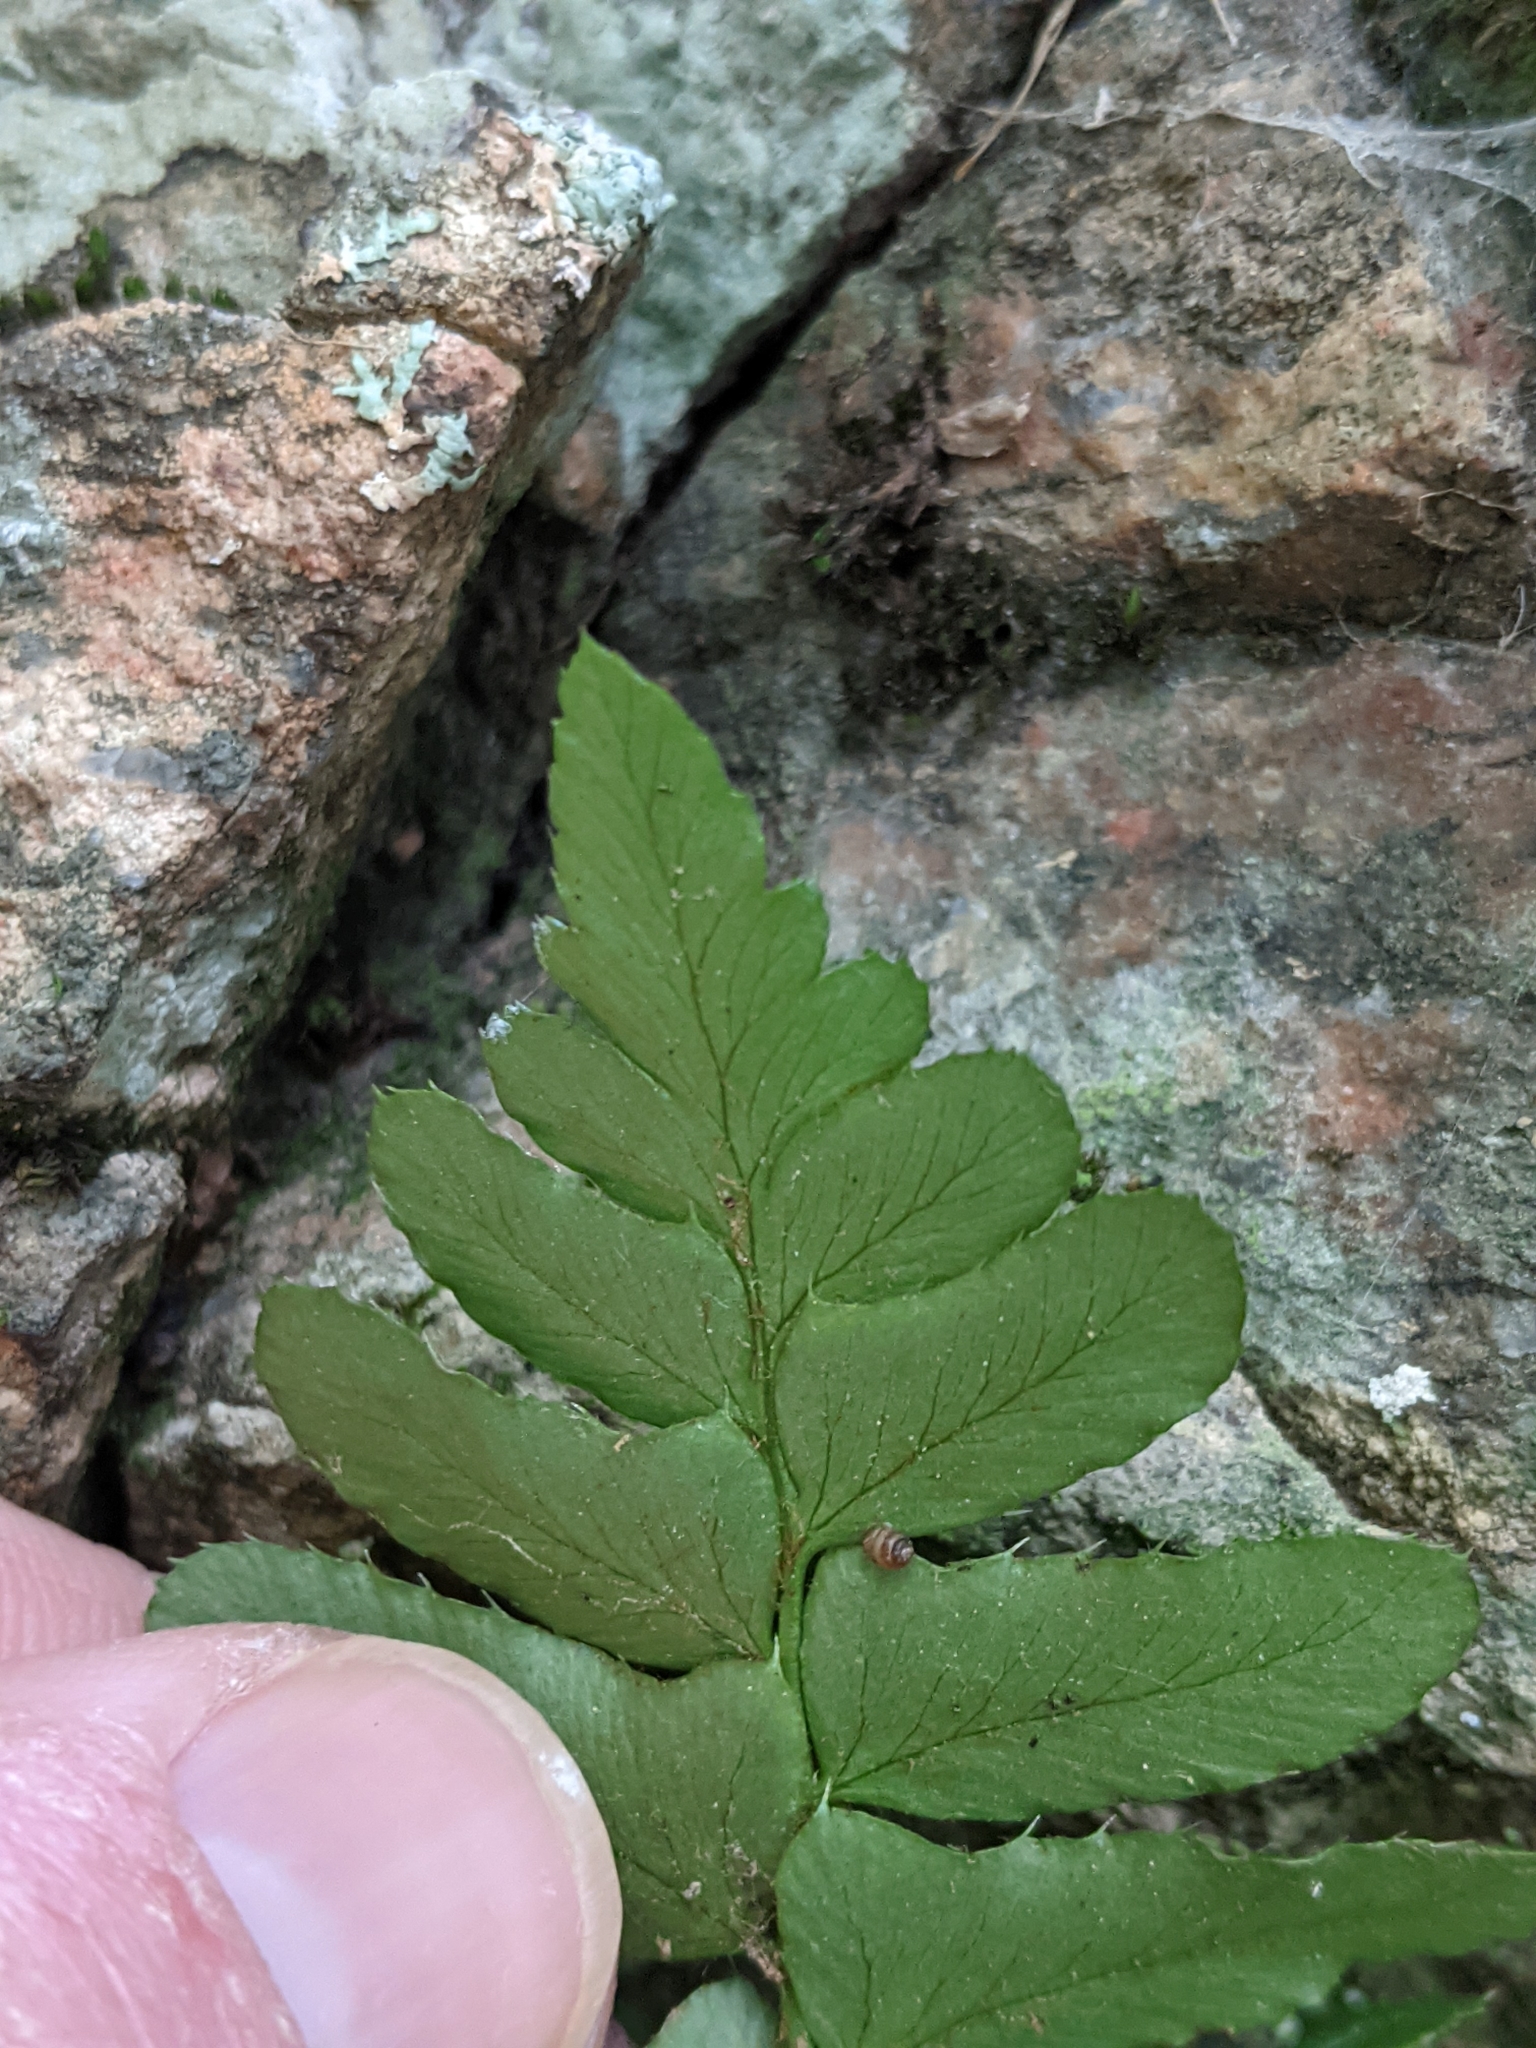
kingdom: Plantae
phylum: Tracheophyta
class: Polypodiopsida
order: Polypodiales
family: Polypodiaceae
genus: Polypodium
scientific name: Polypodium virginianum
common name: American wall fern
